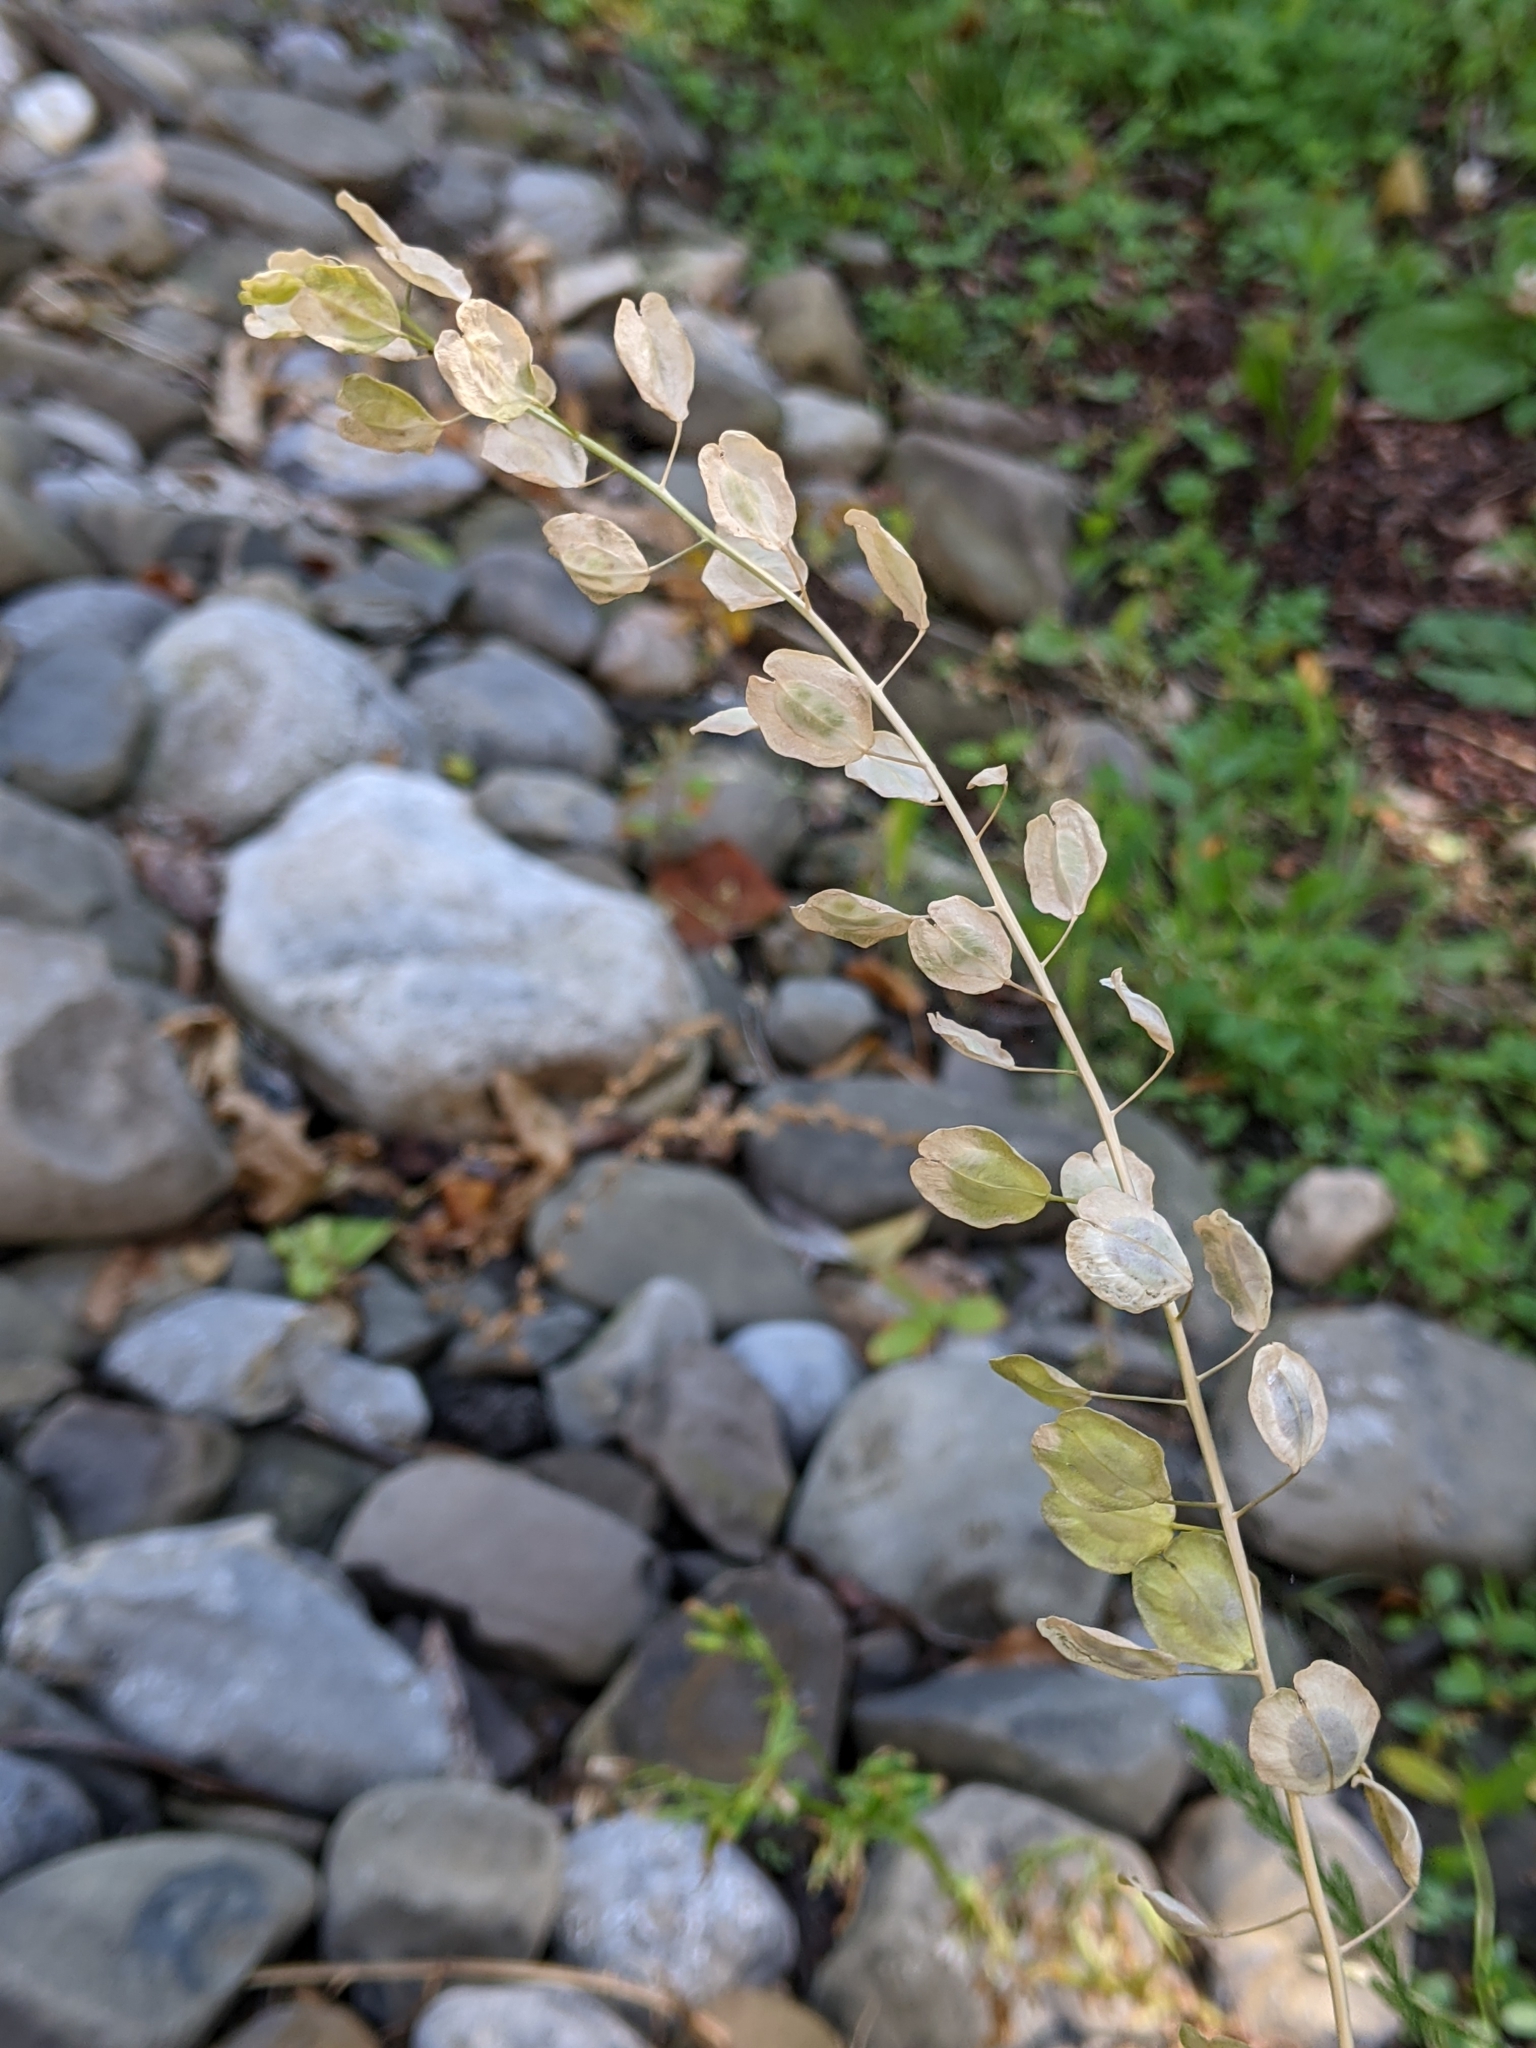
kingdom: Plantae
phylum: Tracheophyta
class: Magnoliopsida
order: Brassicales
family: Brassicaceae
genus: Thlaspi
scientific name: Thlaspi arvense
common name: Field pennycress
